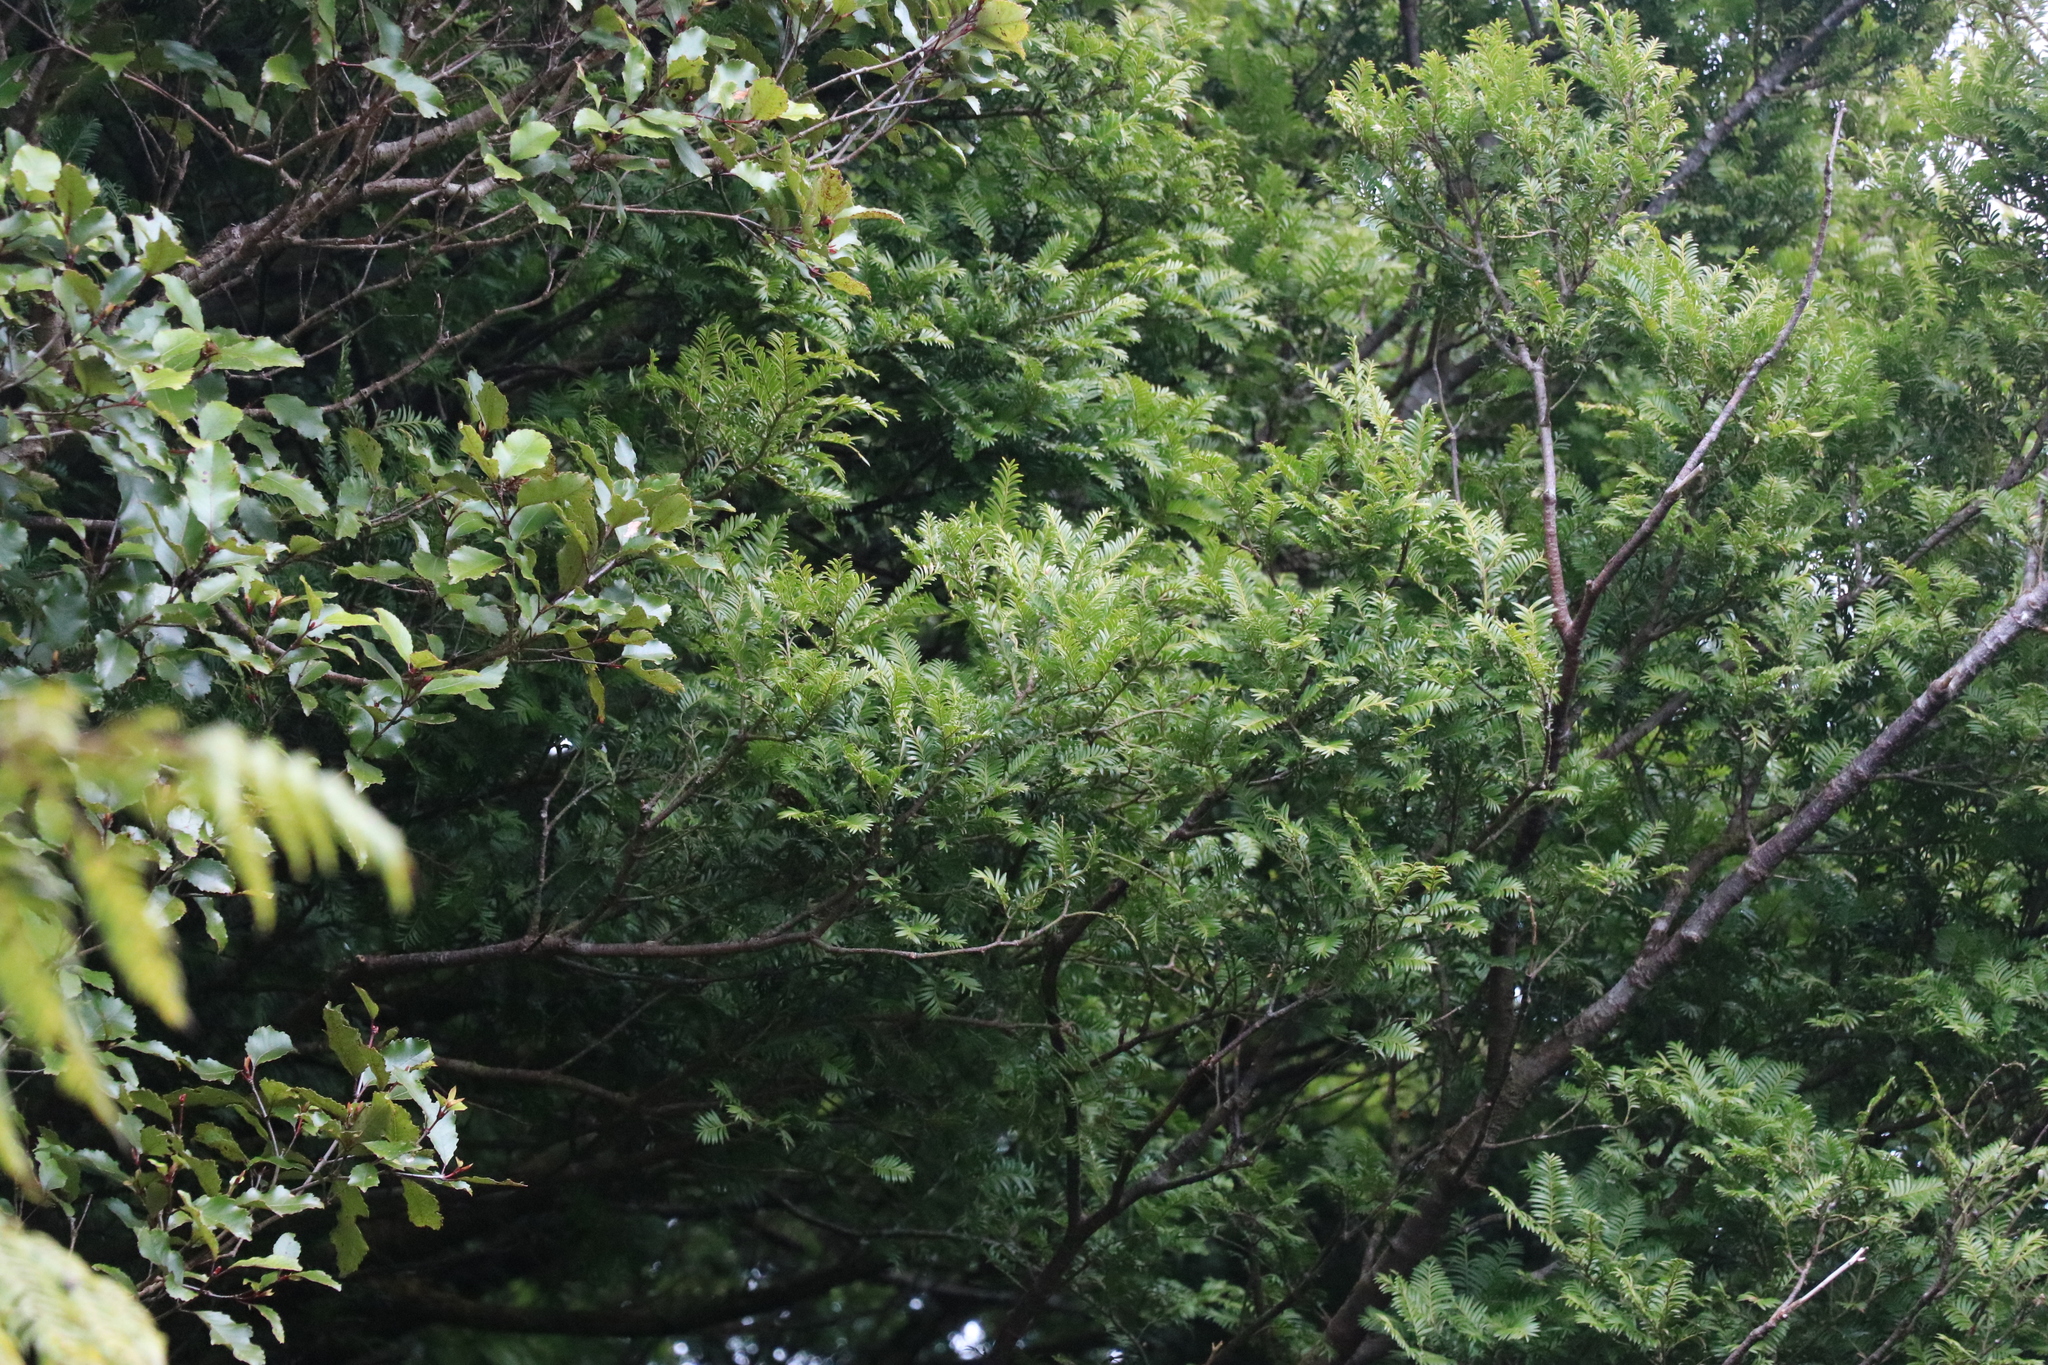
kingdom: Plantae
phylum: Tracheophyta
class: Pinopsida
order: Pinales
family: Podocarpaceae
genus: Prumnopitys
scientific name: Prumnopitys ferruginea
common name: Brown pine
